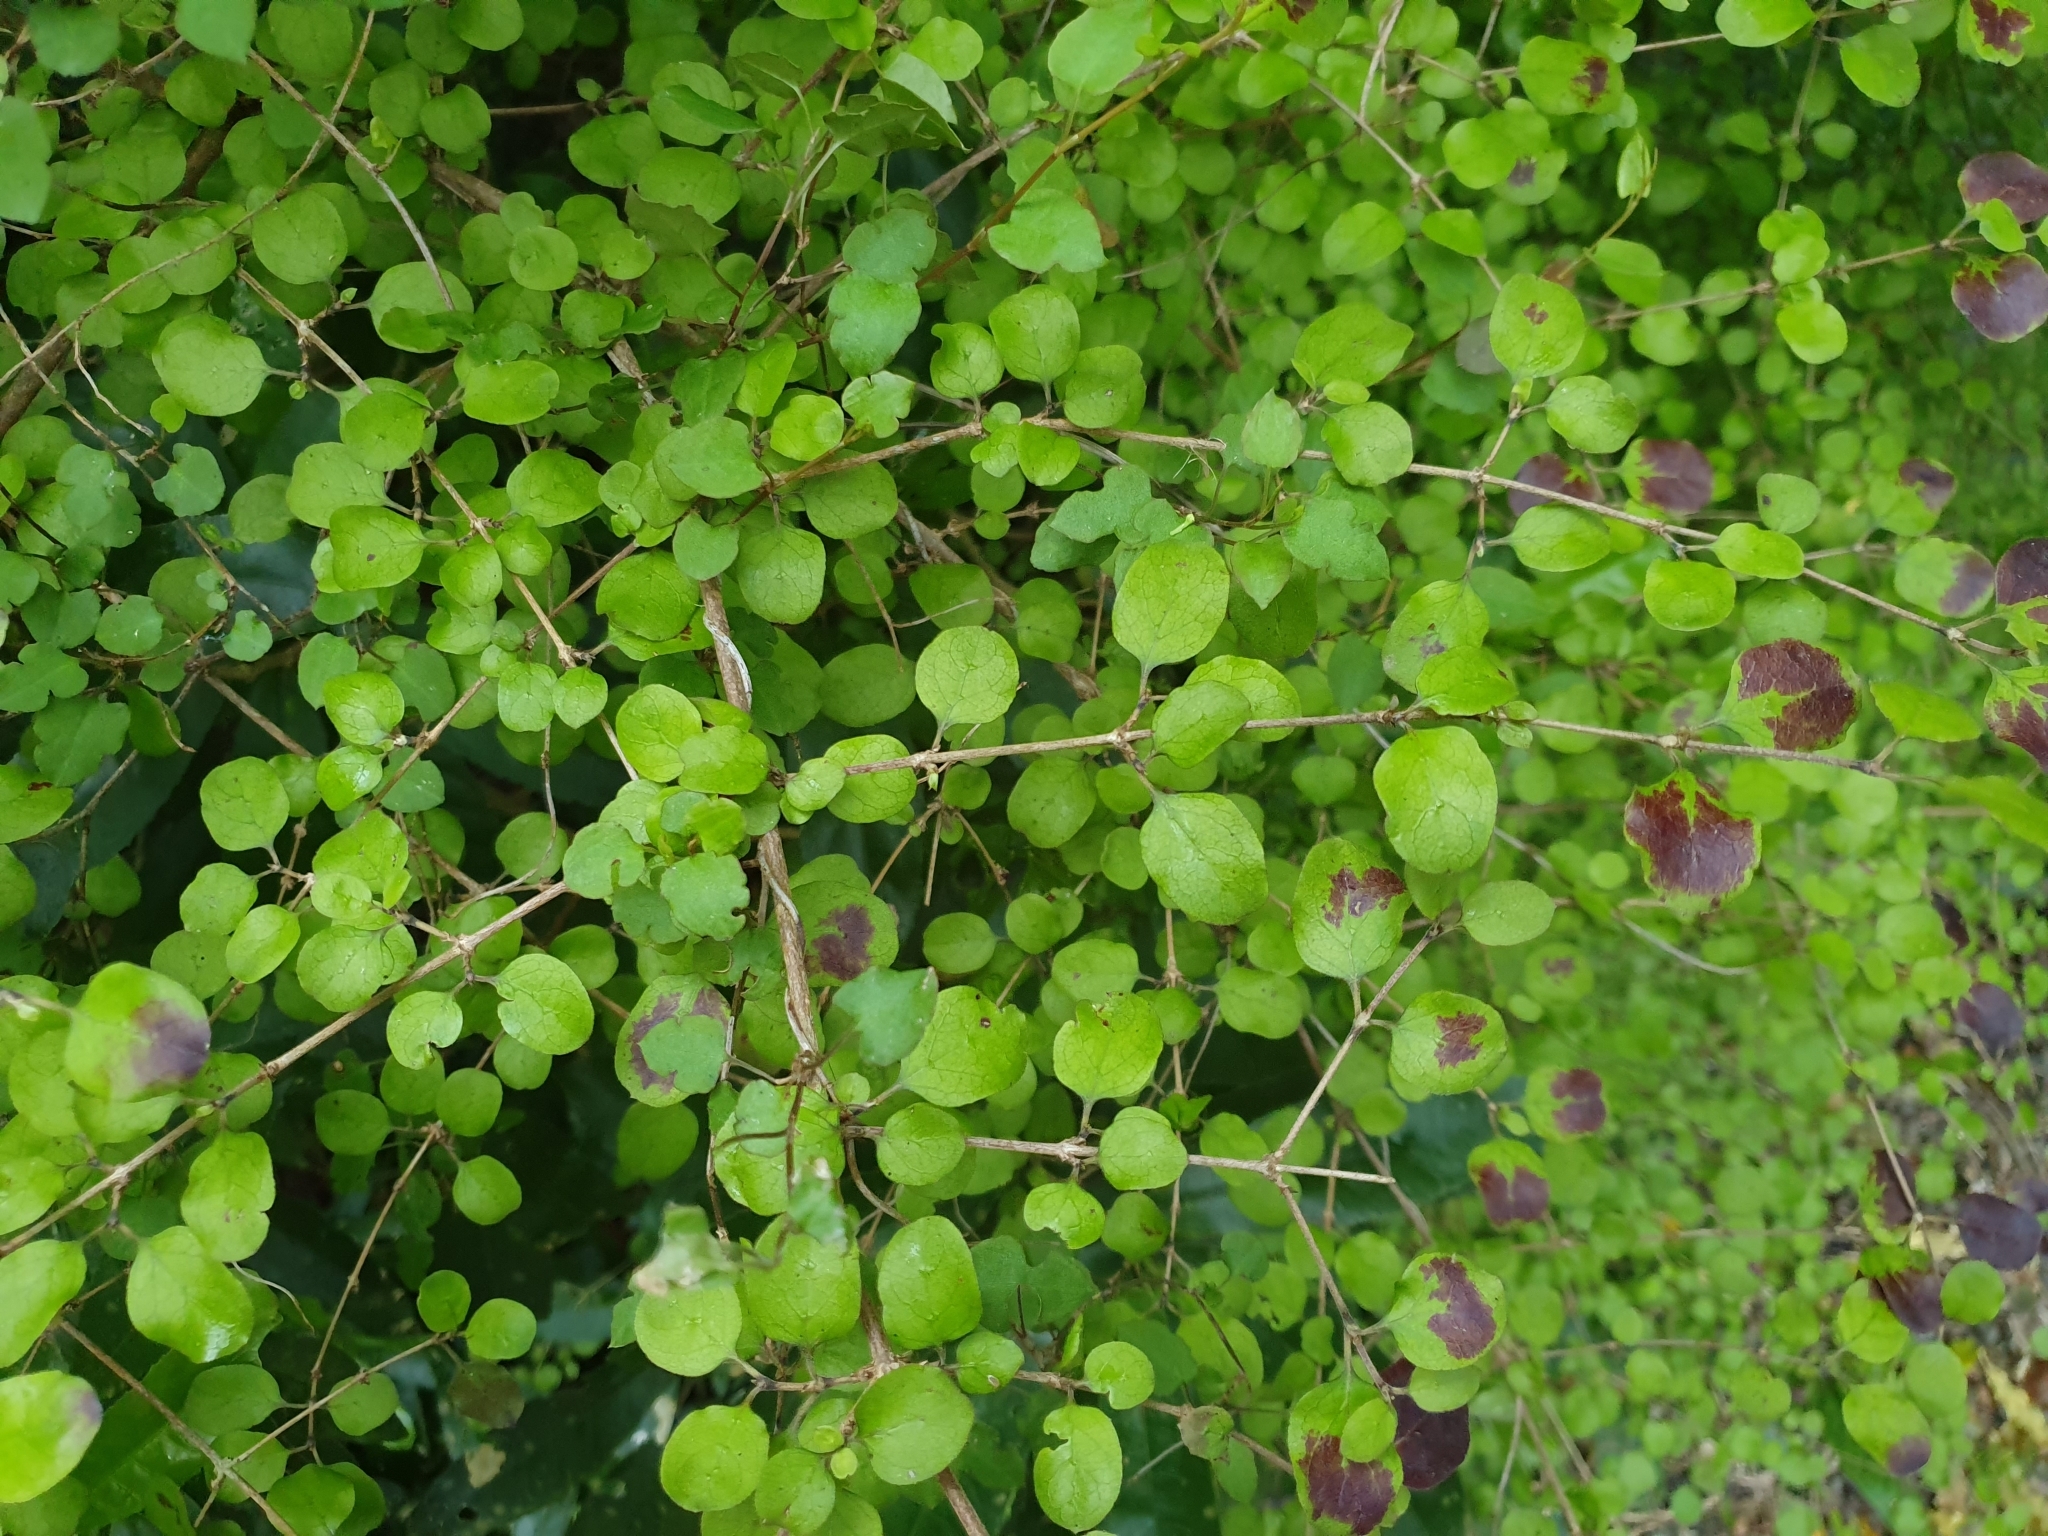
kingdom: Plantae
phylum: Tracheophyta
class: Magnoliopsida
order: Gentianales
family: Rubiaceae
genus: Coprosma
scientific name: Coprosma rotundifolia
